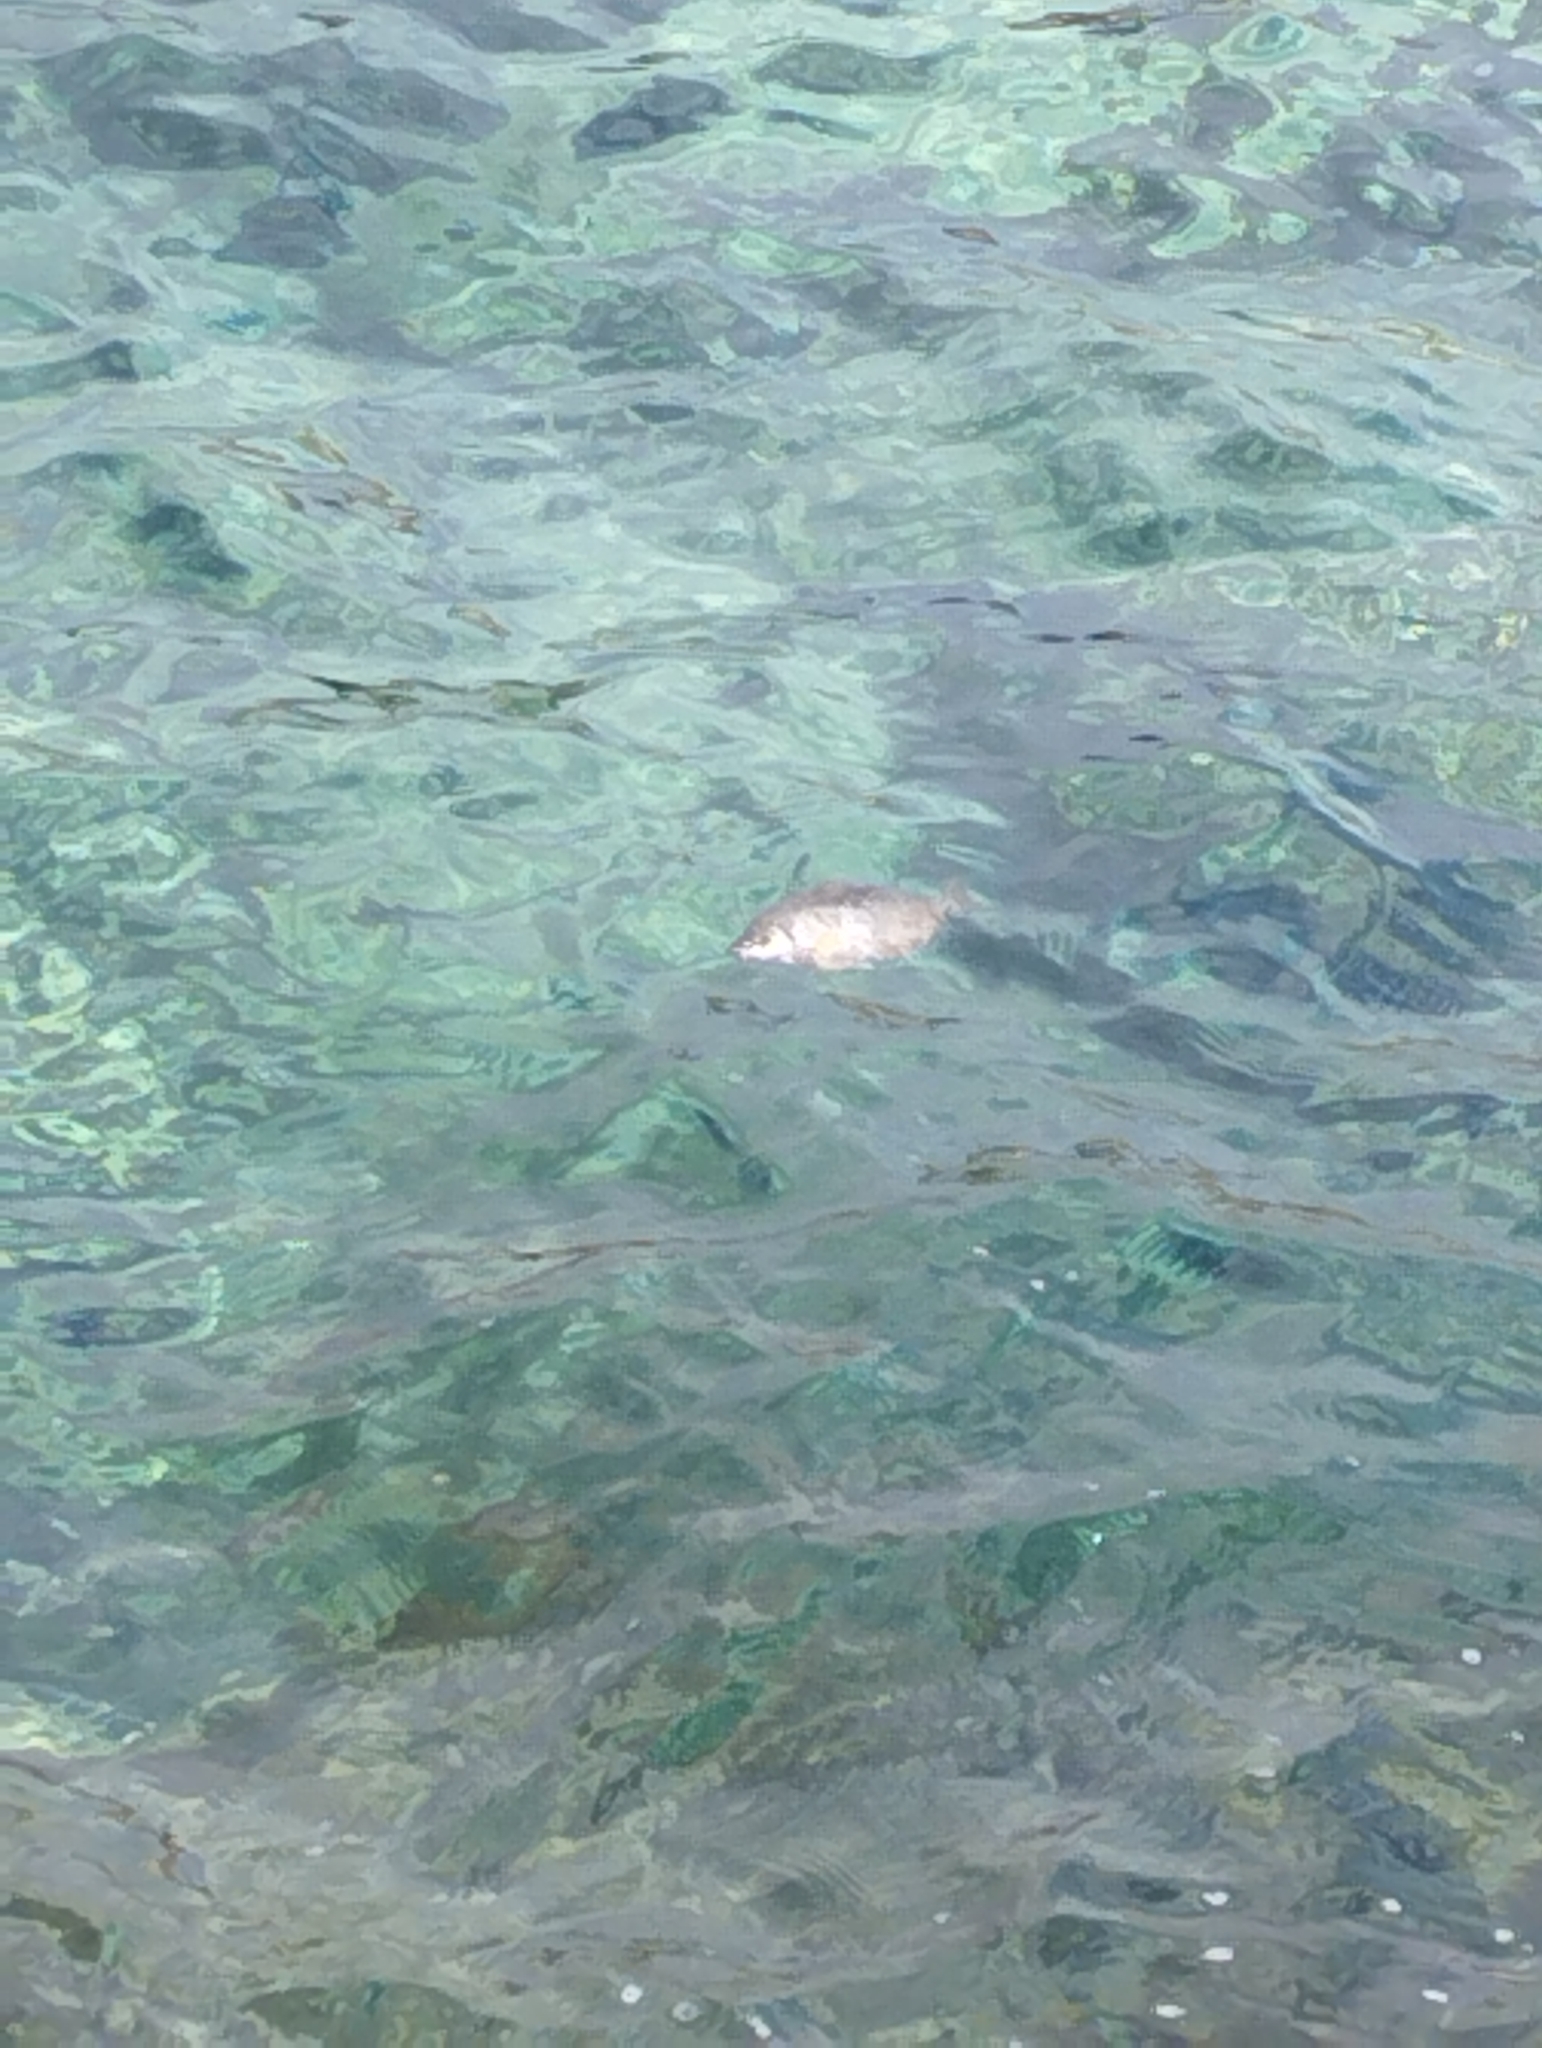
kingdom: Animalia
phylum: Chordata
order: Perciformes
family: Siganidae
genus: Siganus
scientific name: Siganus
